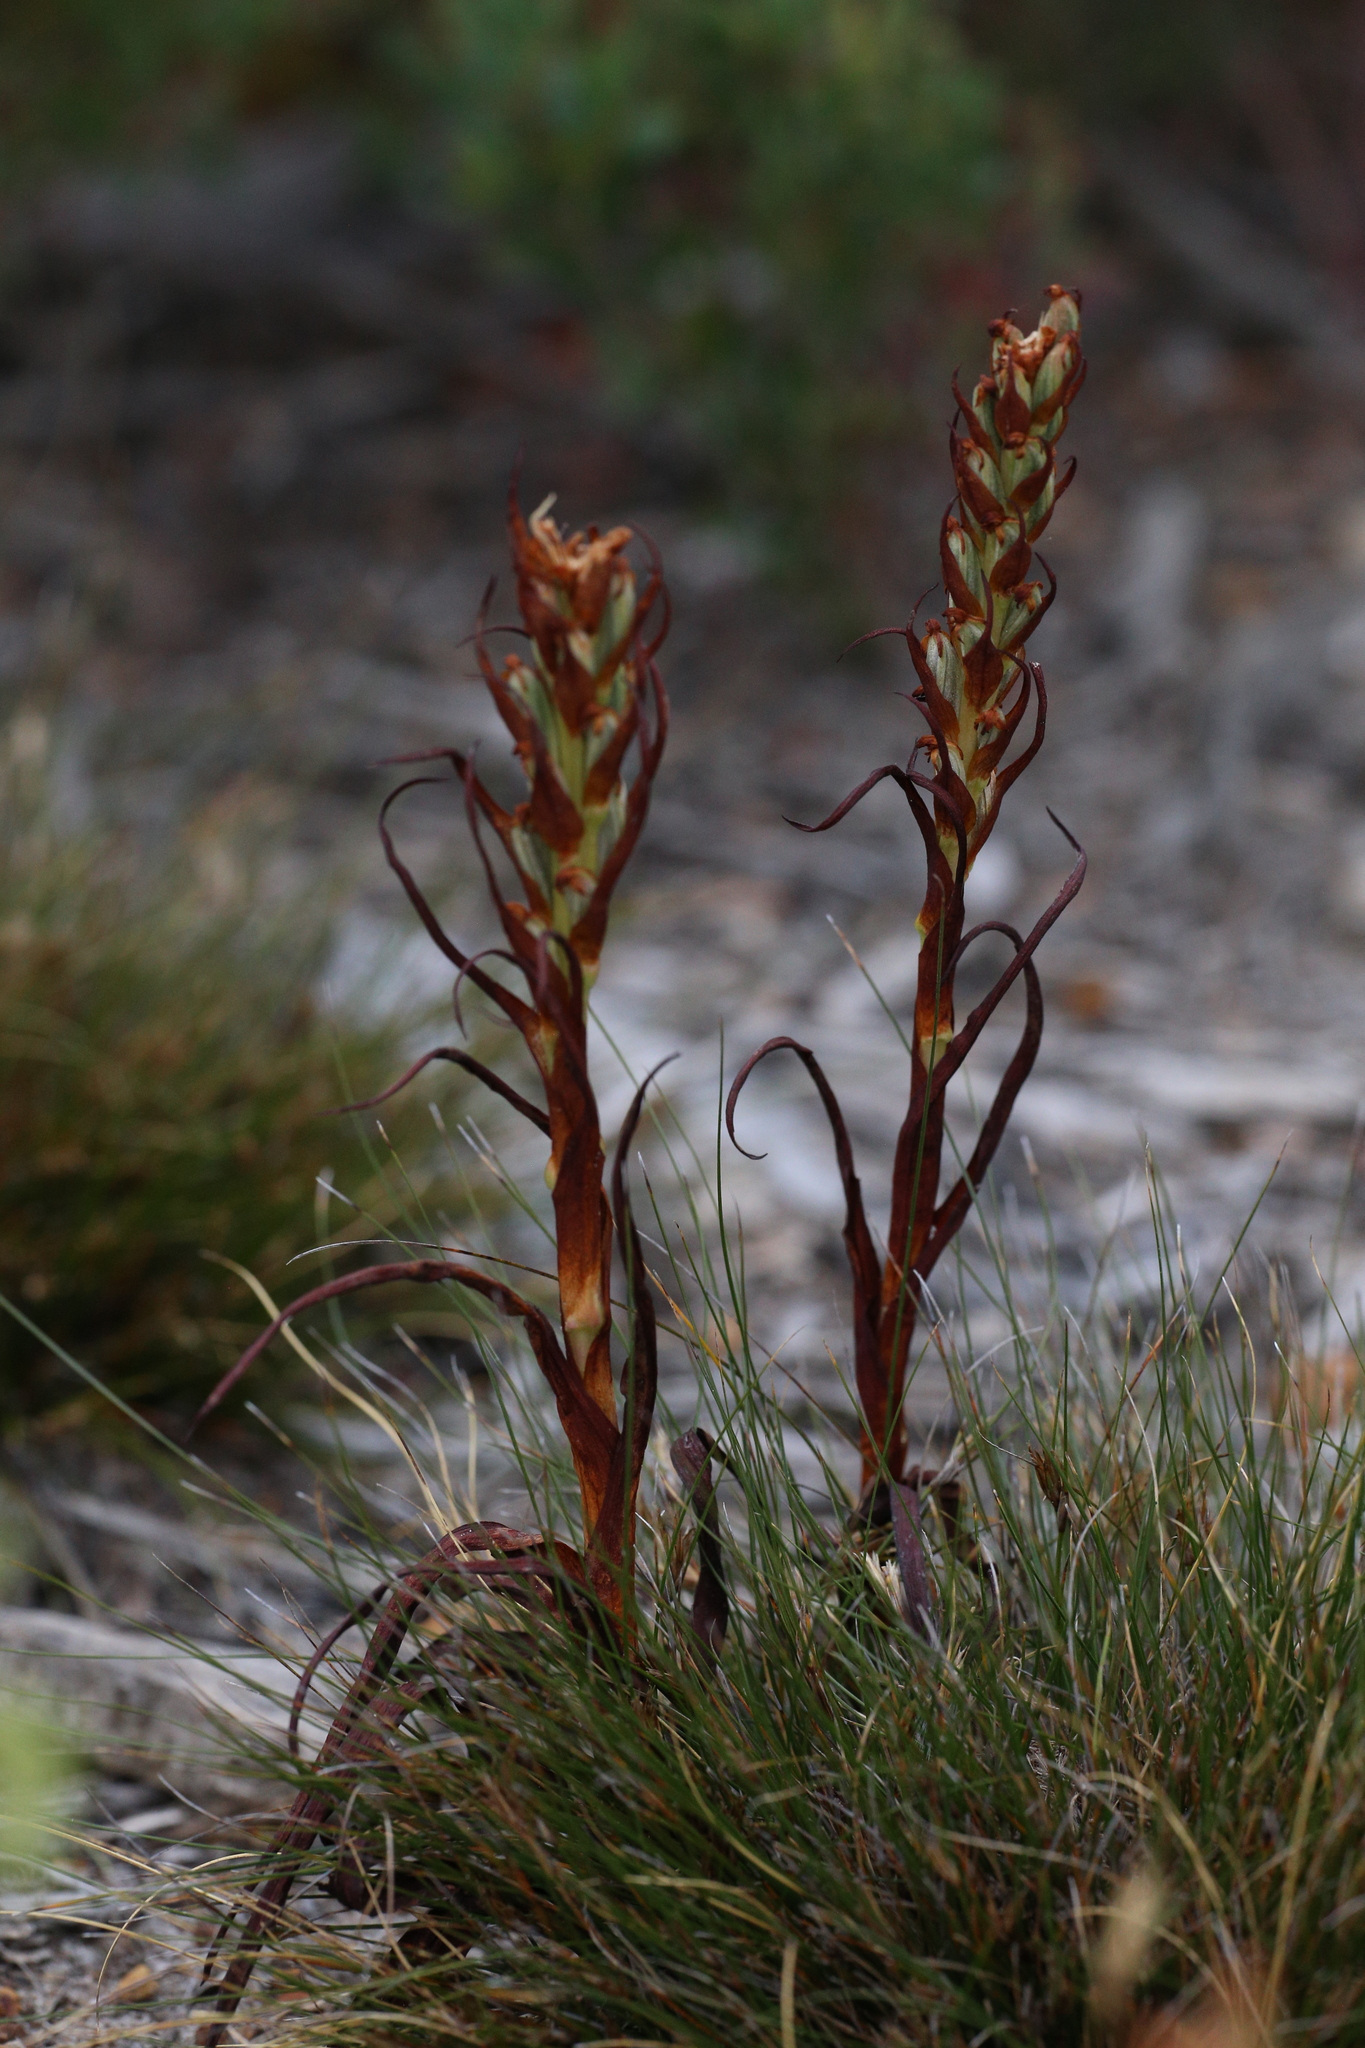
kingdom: Plantae
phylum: Tracheophyta
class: Liliopsida
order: Asparagales
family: Orchidaceae
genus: Disa
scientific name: Disa bracteata
